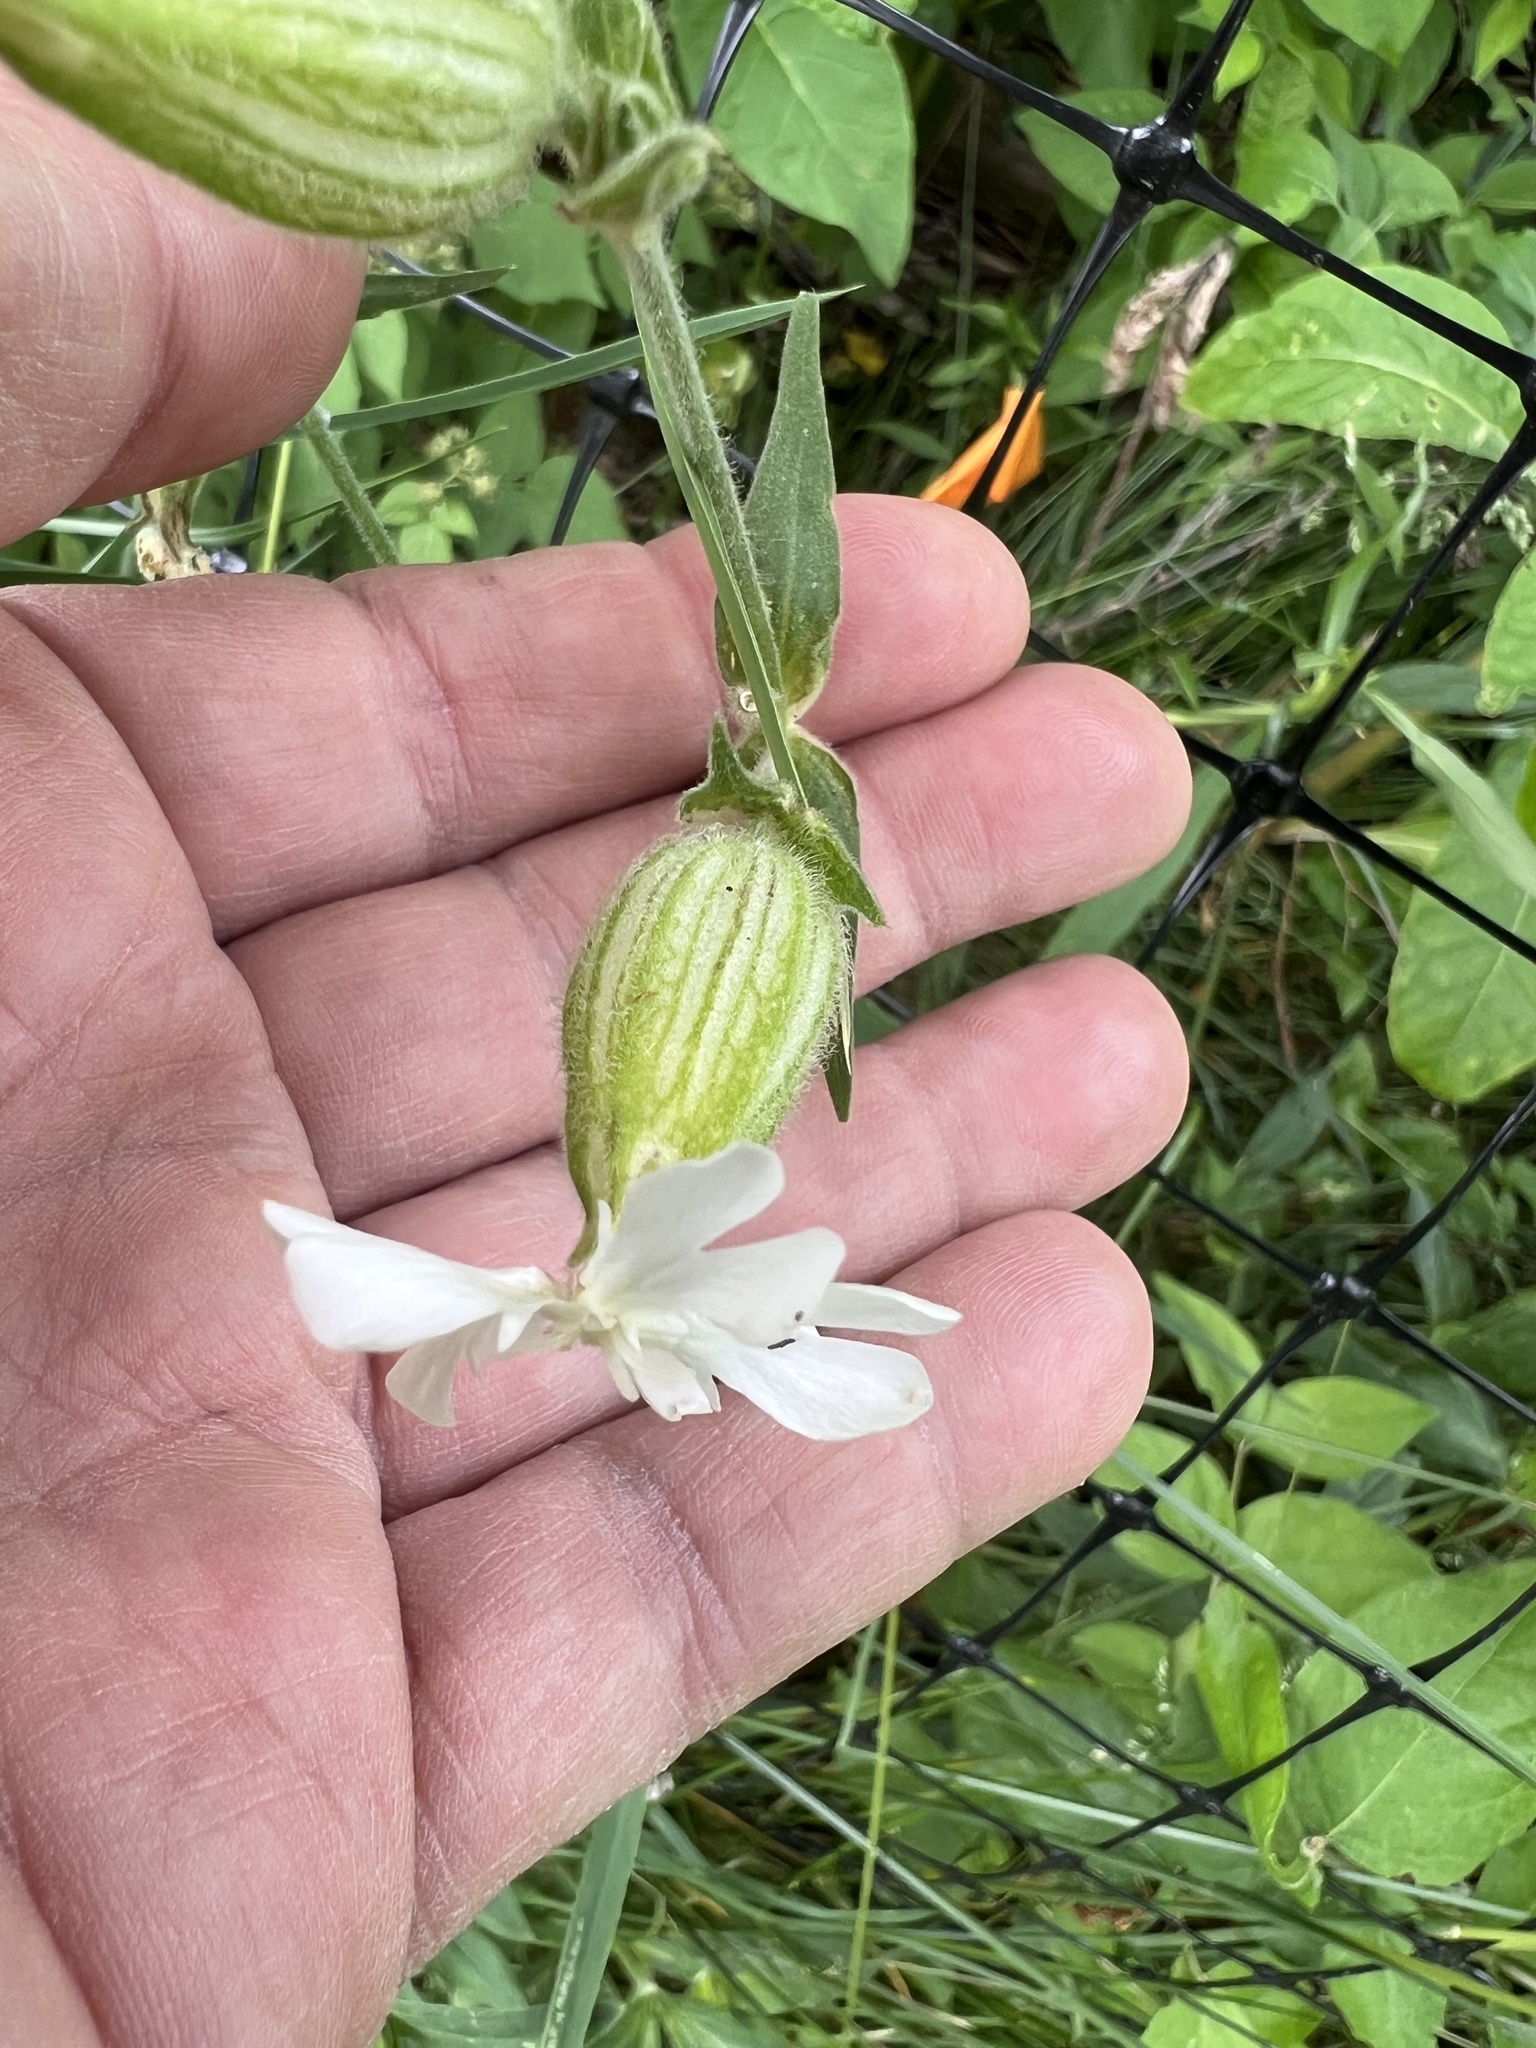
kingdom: Plantae
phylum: Tracheophyta
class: Magnoliopsida
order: Caryophyllales
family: Caryophyllaceae
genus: Silene
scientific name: Silene latifolia
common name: White campion
